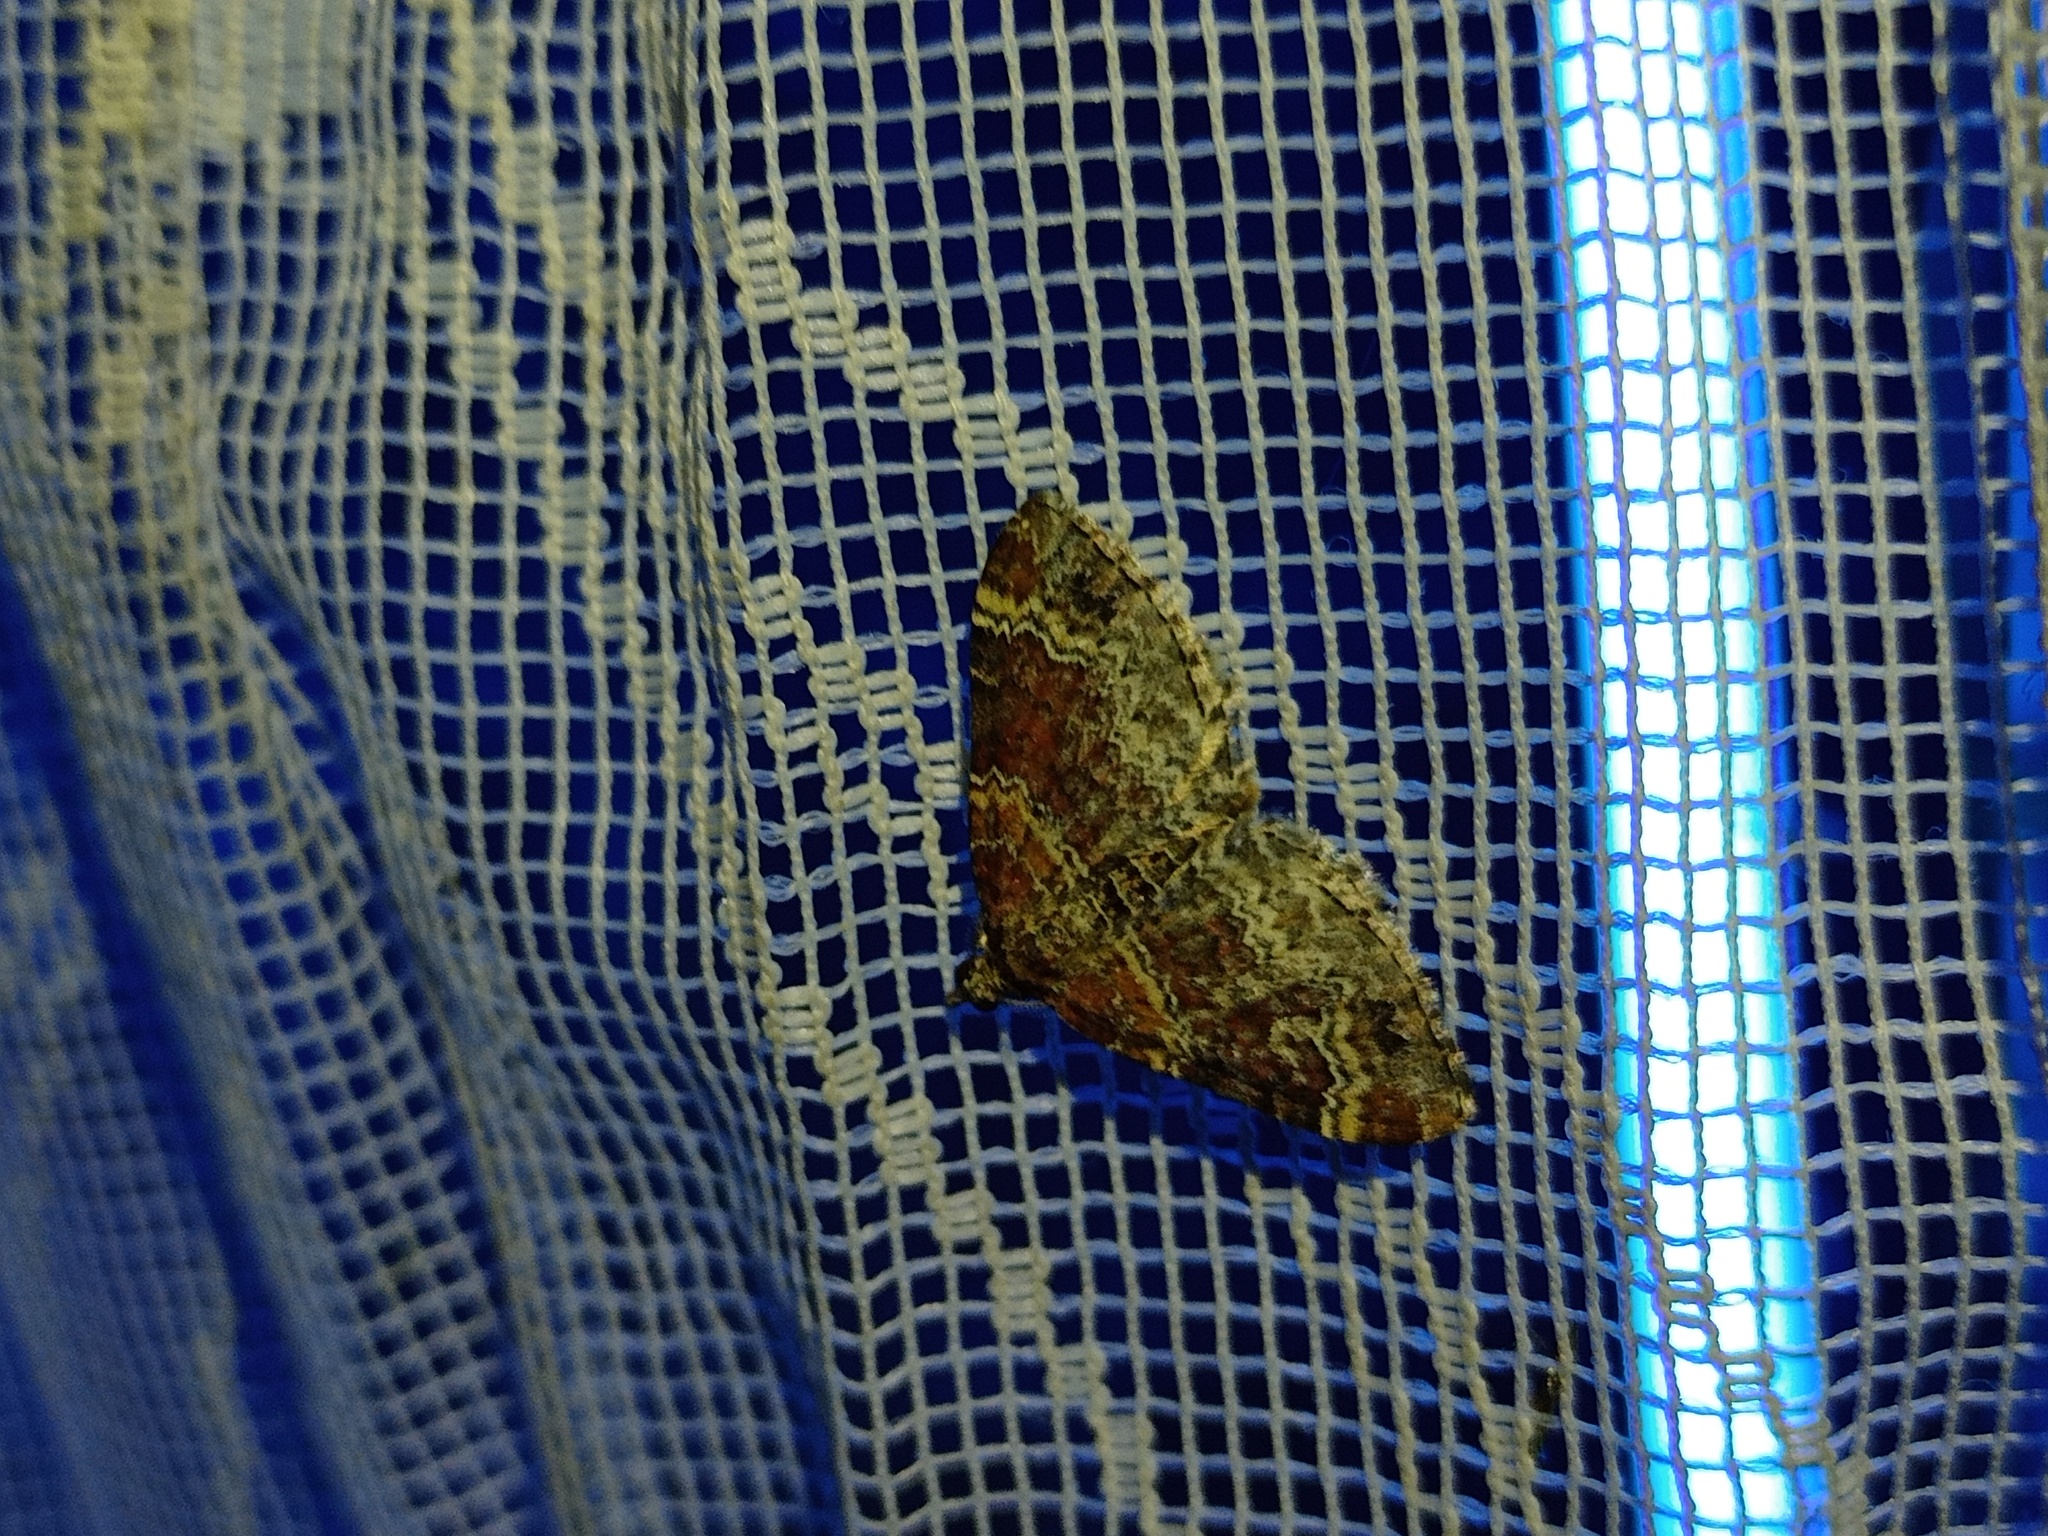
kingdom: Animalia
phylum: Arthropoda
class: Insecta
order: Lepidoptera
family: Geometridae
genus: Xanthorhoe
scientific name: Xanthorhoe spadicearia
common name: Red twin-spot carpet
